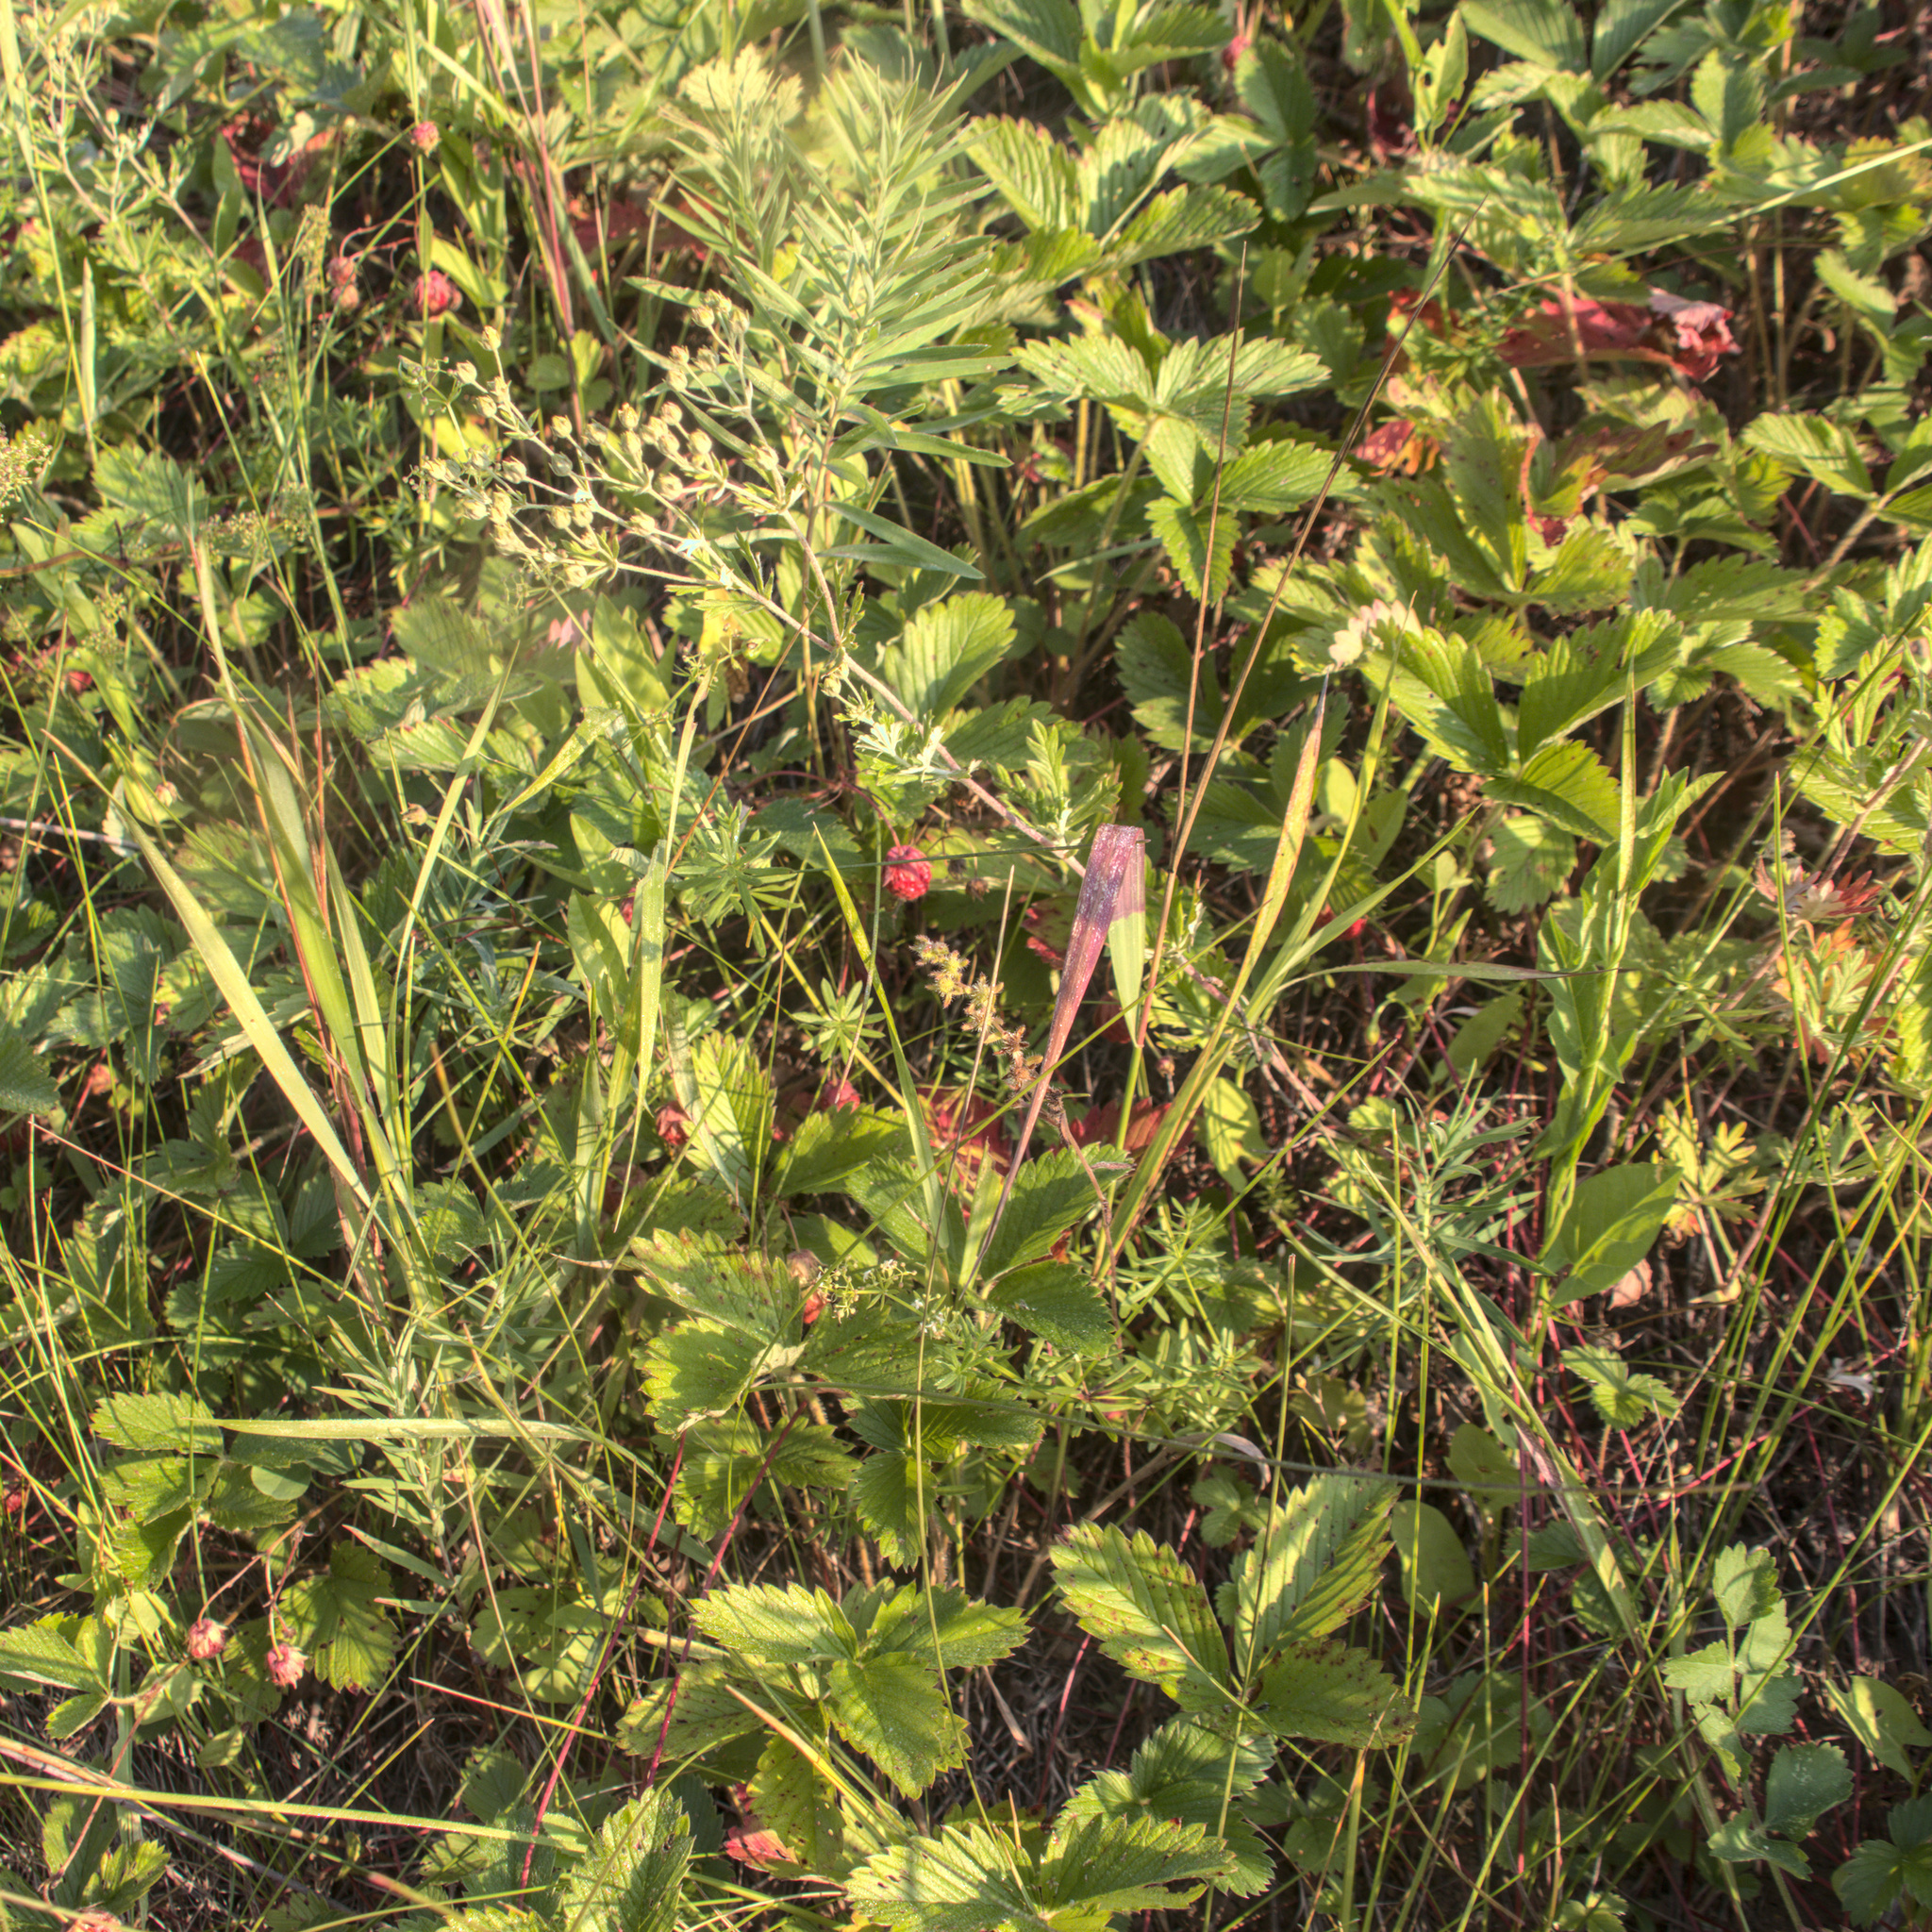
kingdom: Plantae
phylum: Tracheophyta
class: Magnoliopsida
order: Rosales
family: Rosaceae
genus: Fragaria
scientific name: Fragaria viridis
